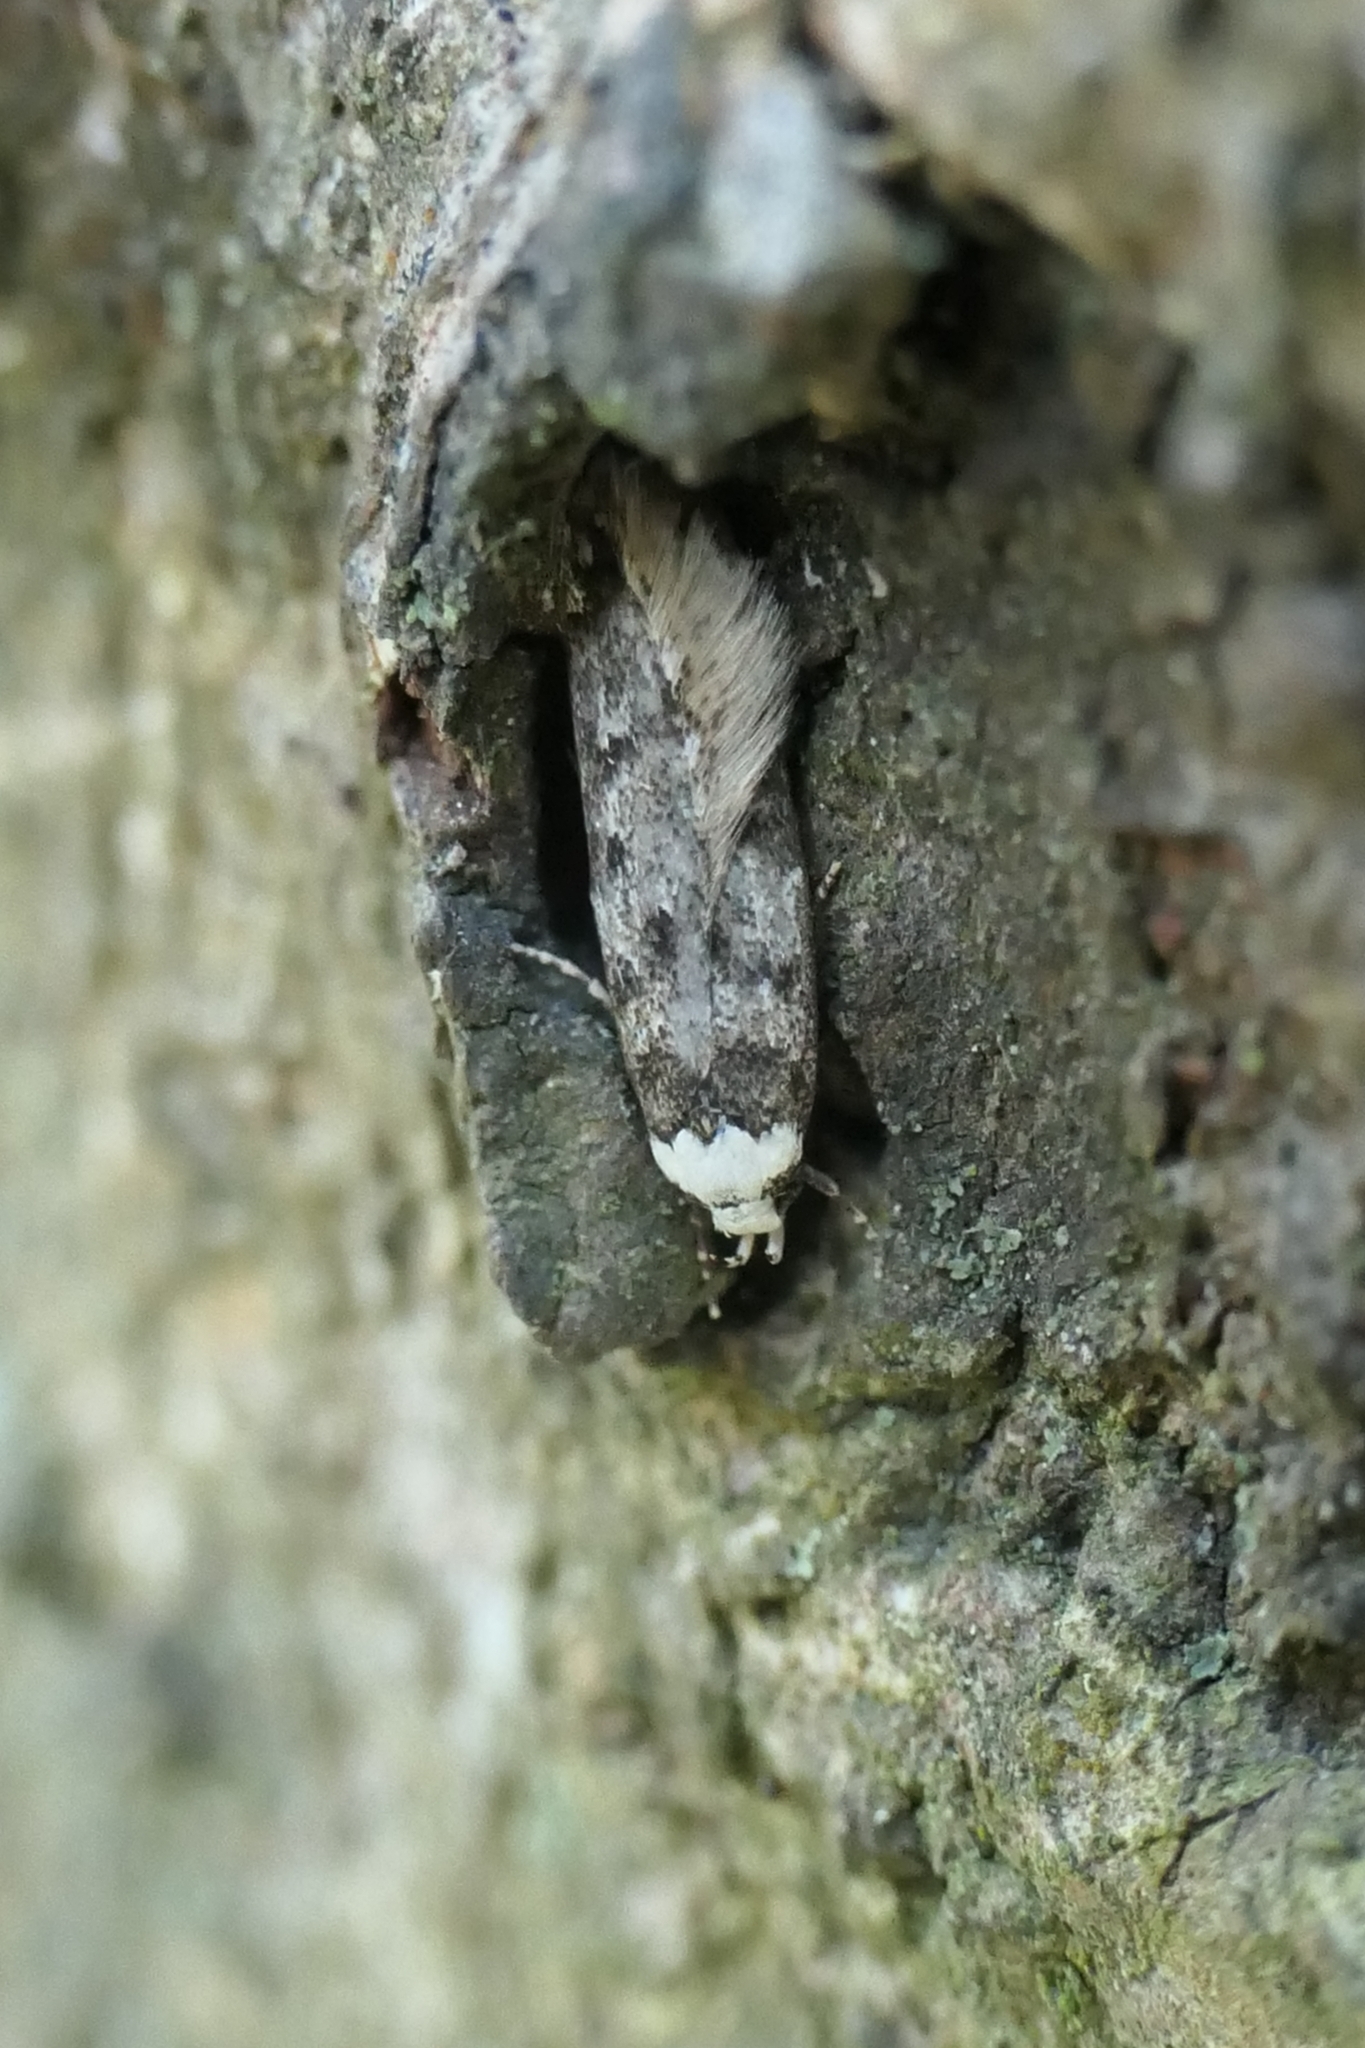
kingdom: Animalia
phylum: Arthropoda
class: Insecta
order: Lepidoptera
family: Oecophoridae
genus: Endrosis
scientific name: Endrosis sarcitrella
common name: White-shouldered house moth
